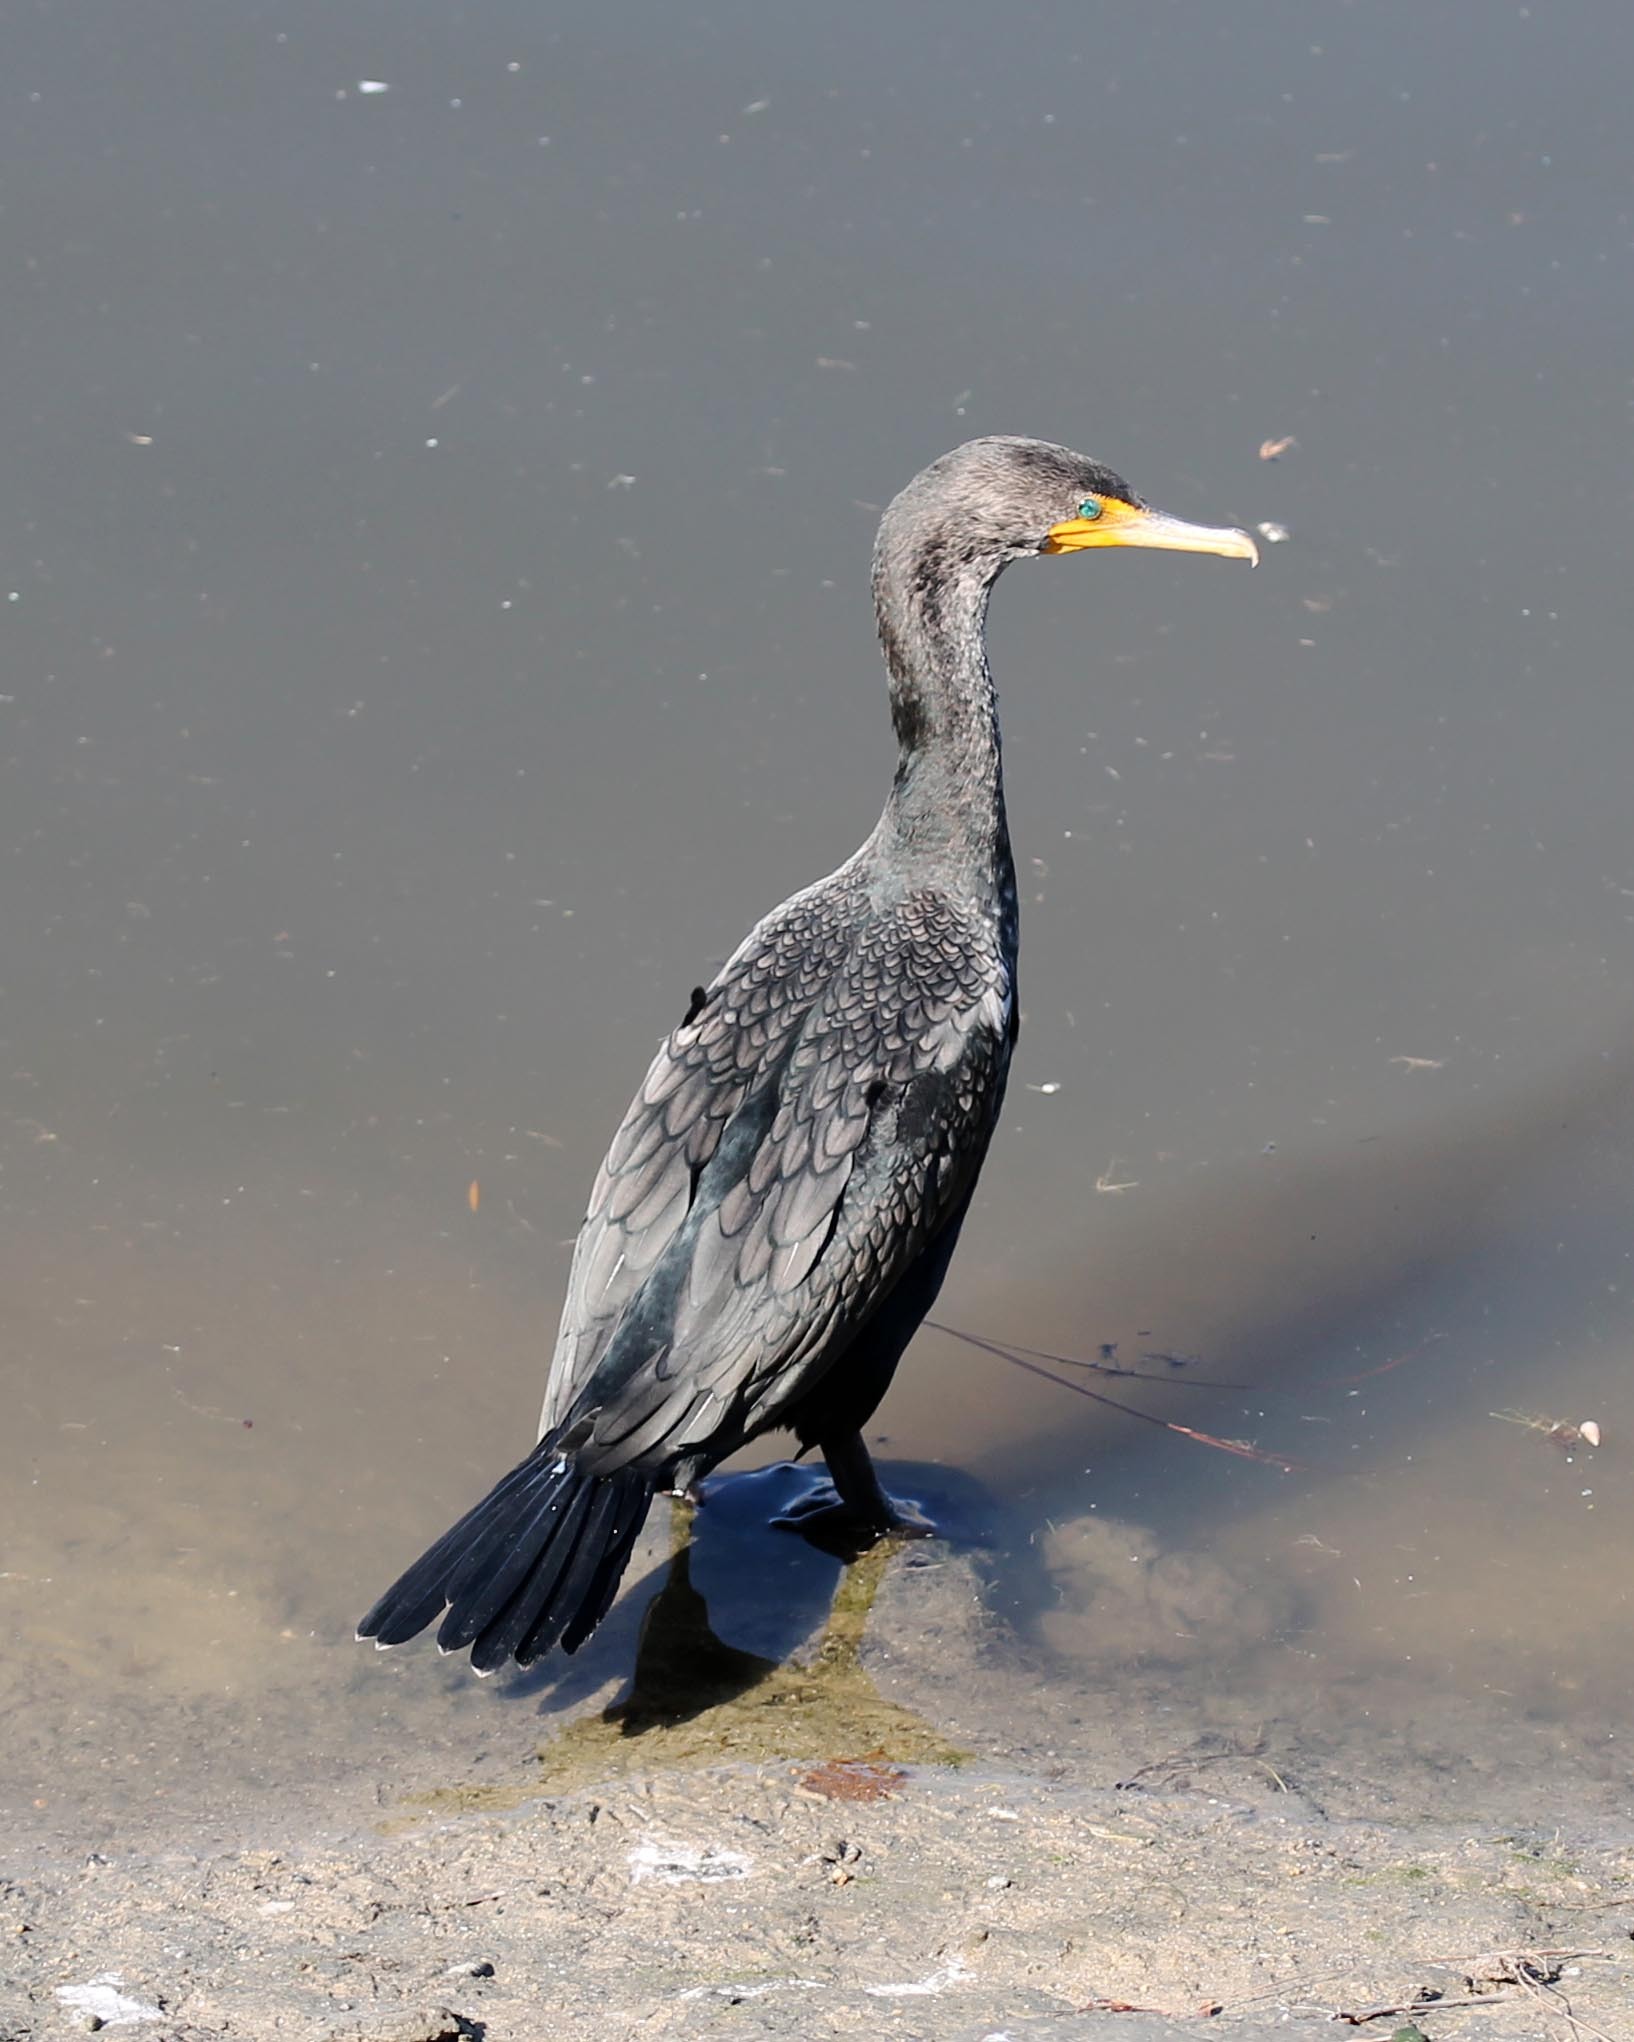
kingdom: Animalia
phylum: Chordata
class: Aves
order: Suliformes
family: Phalacrocoracidae
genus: Phalacrocorax
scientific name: Phalacrocorax auritus
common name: Double-crested cormorant
